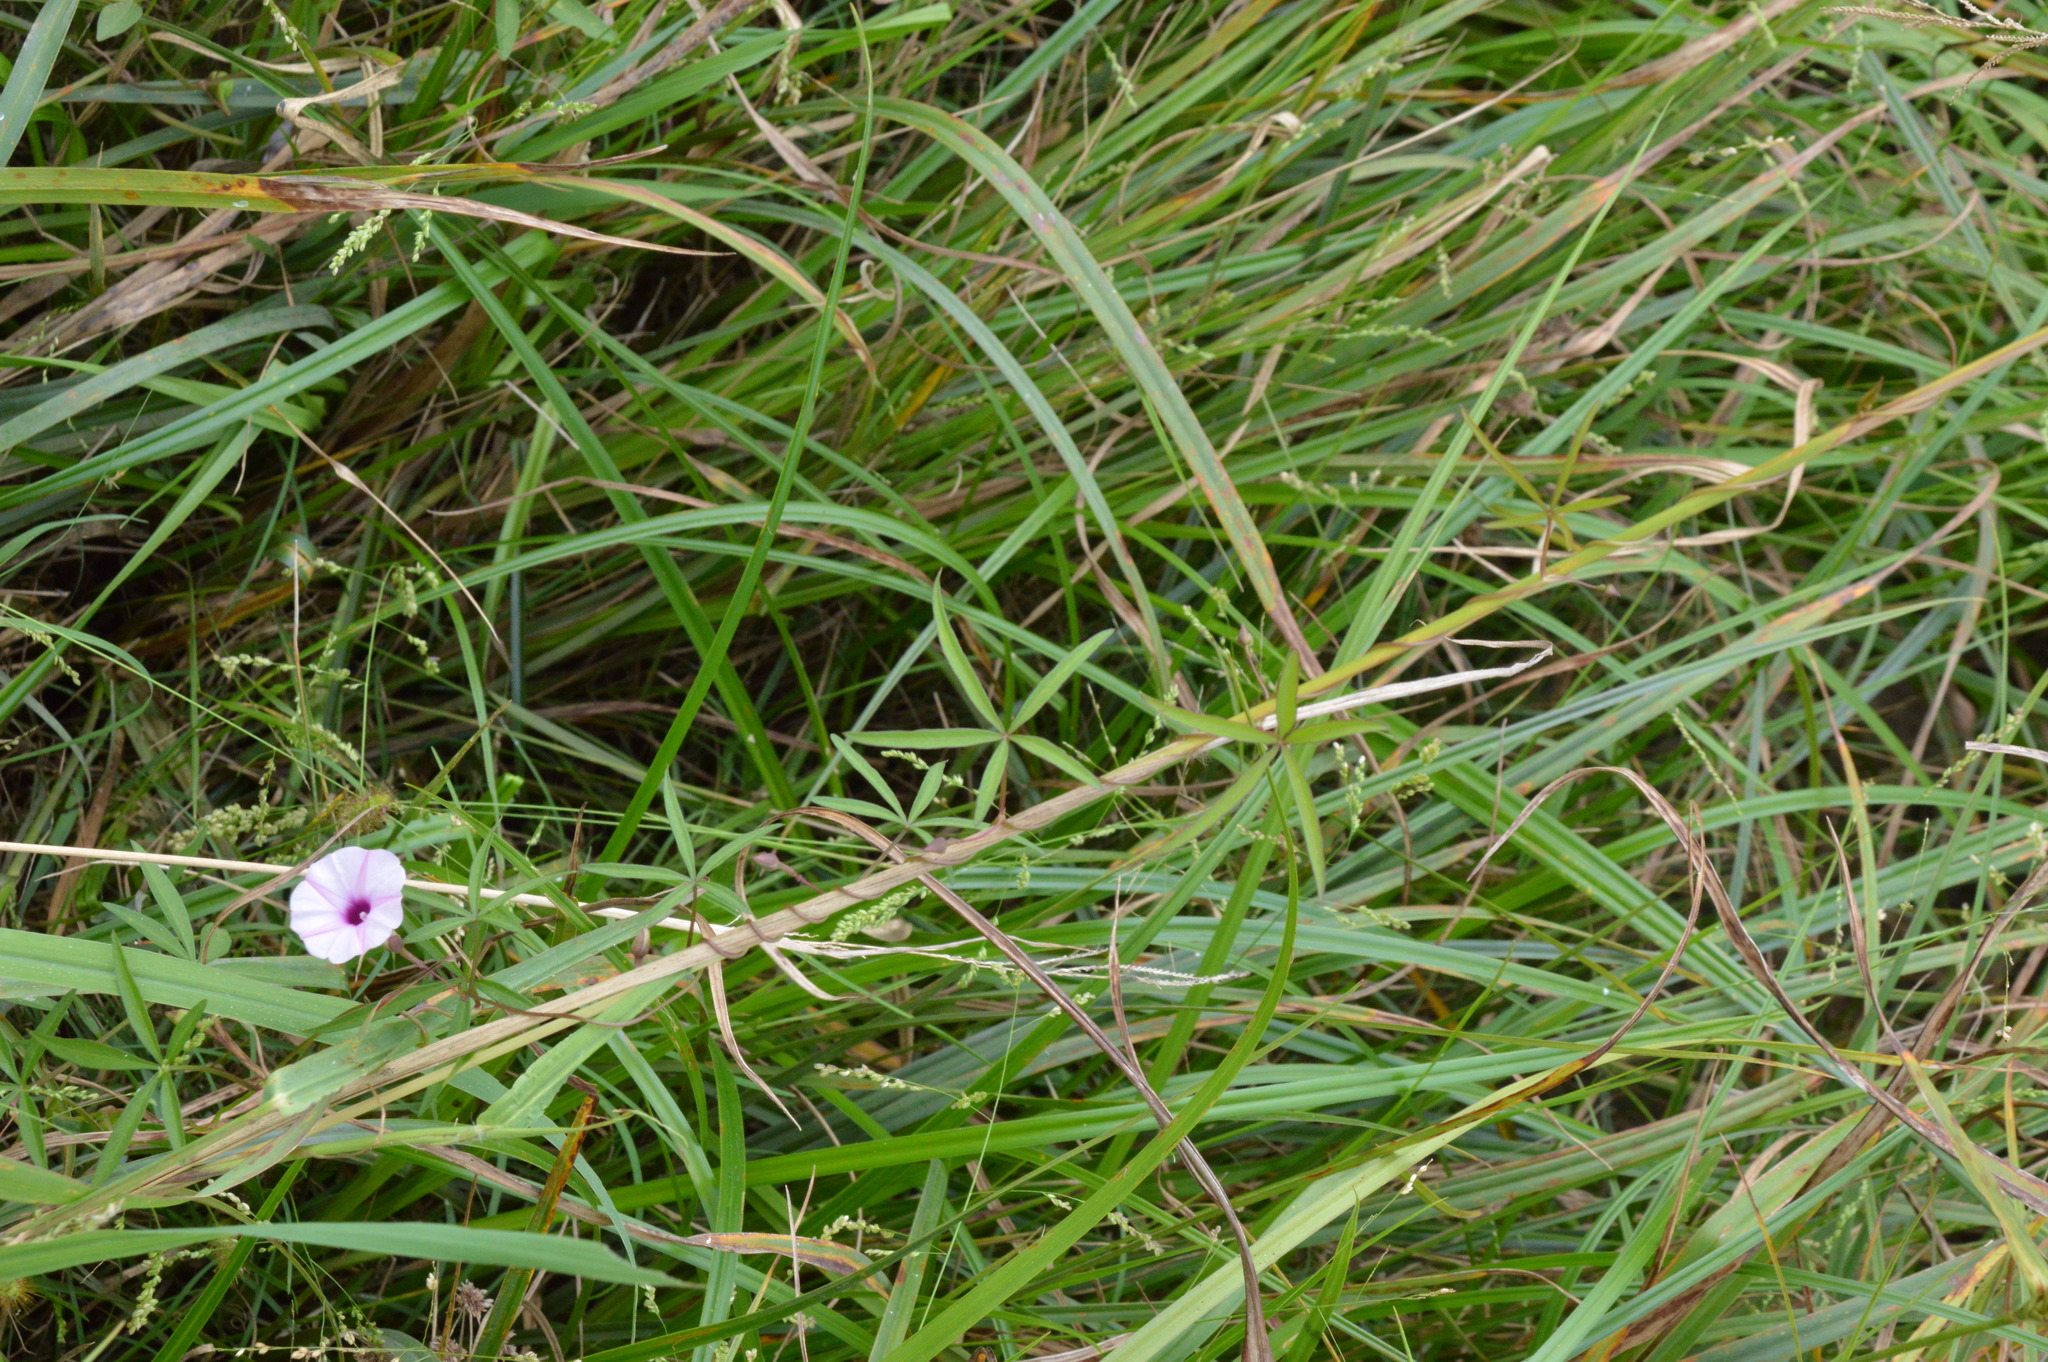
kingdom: Plantae
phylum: Tracheophyta
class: Magnoliopsida
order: Solanales
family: Convolvulaceae
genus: Ipomoea
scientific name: Ipomoea heptaphylla
